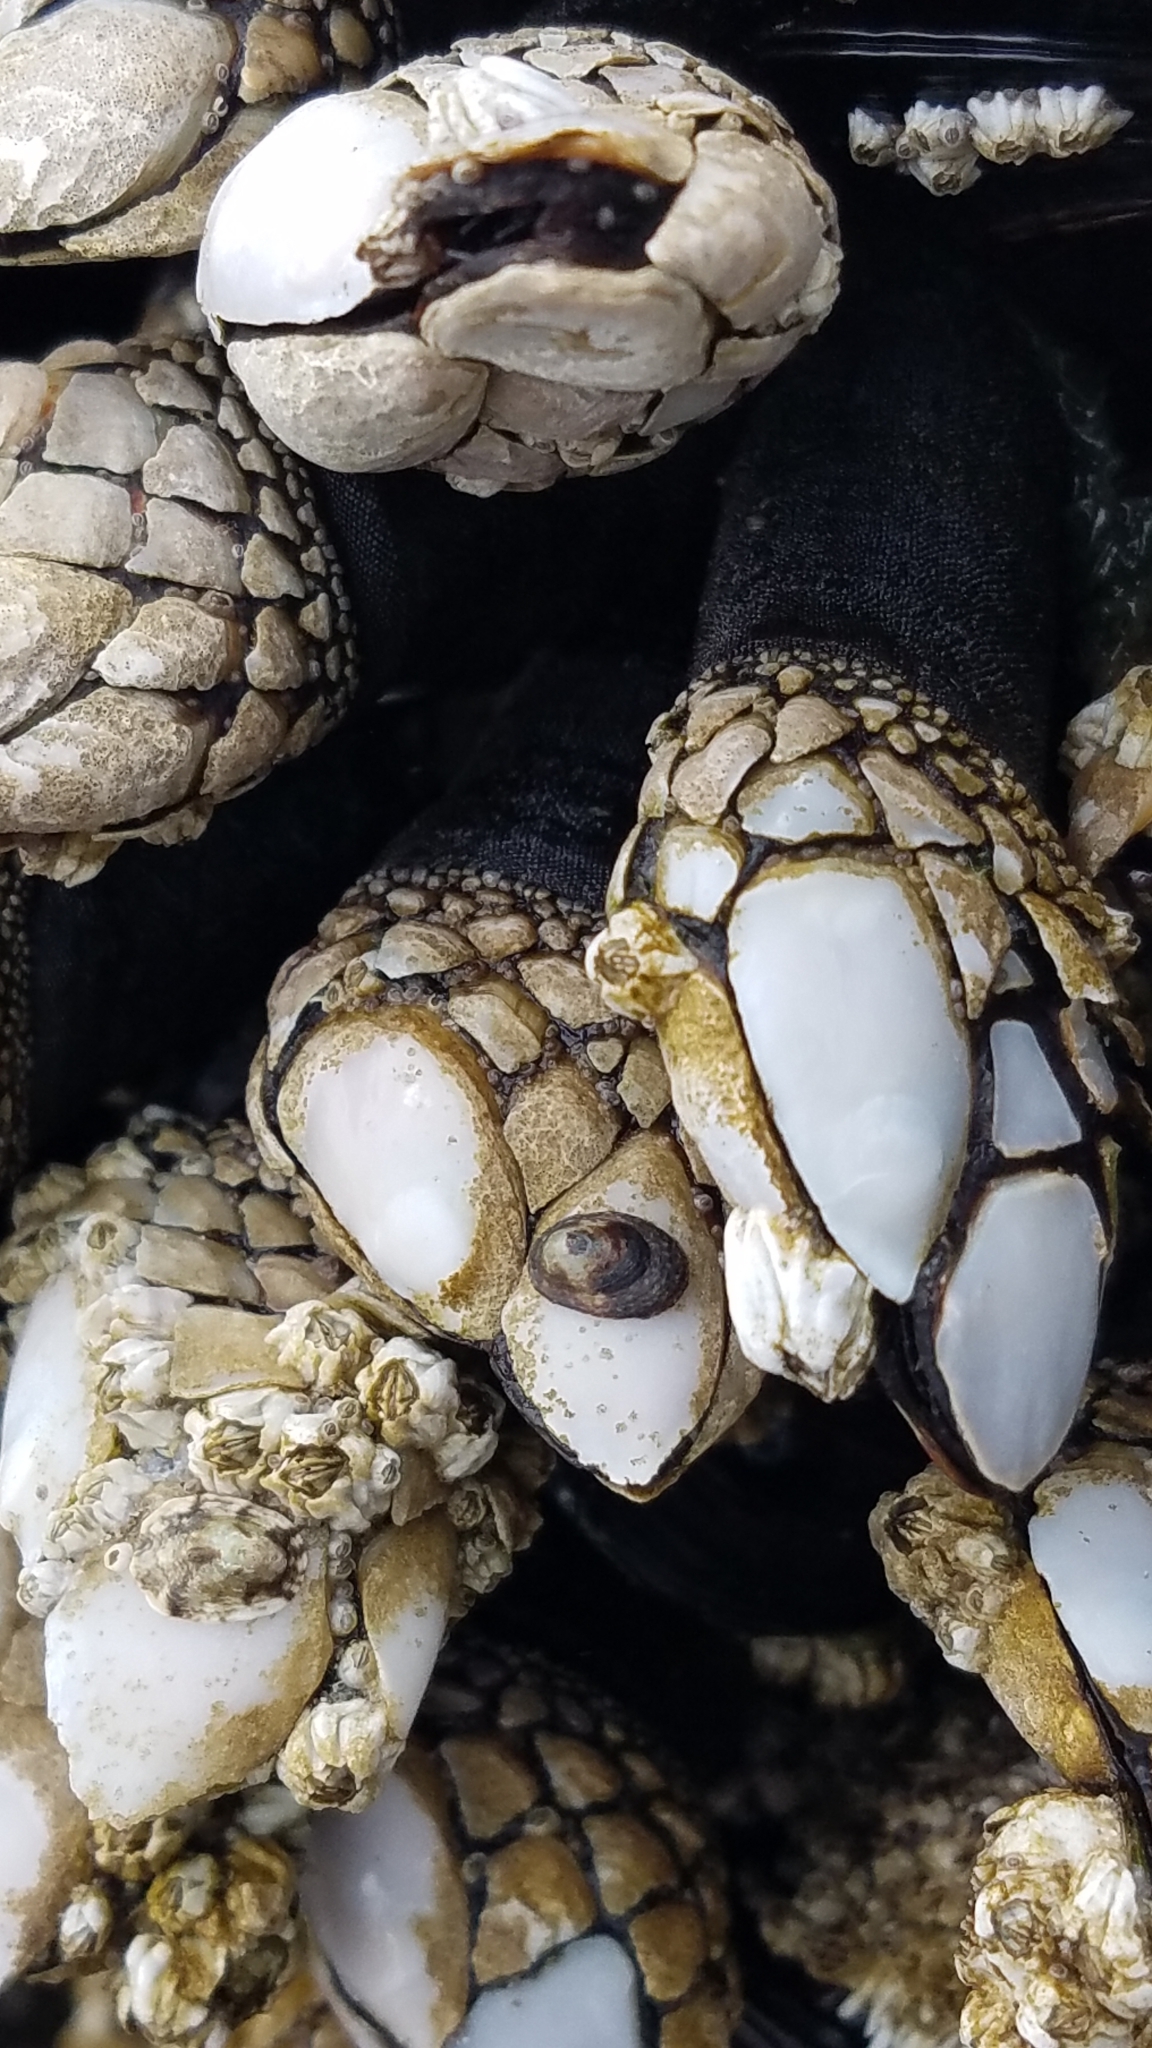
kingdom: Animalia
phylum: Arthropoda
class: Maxillopoda
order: Pedunculata
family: Pollicipedidae
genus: Pollicipes
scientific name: Pollicipes polymerus
